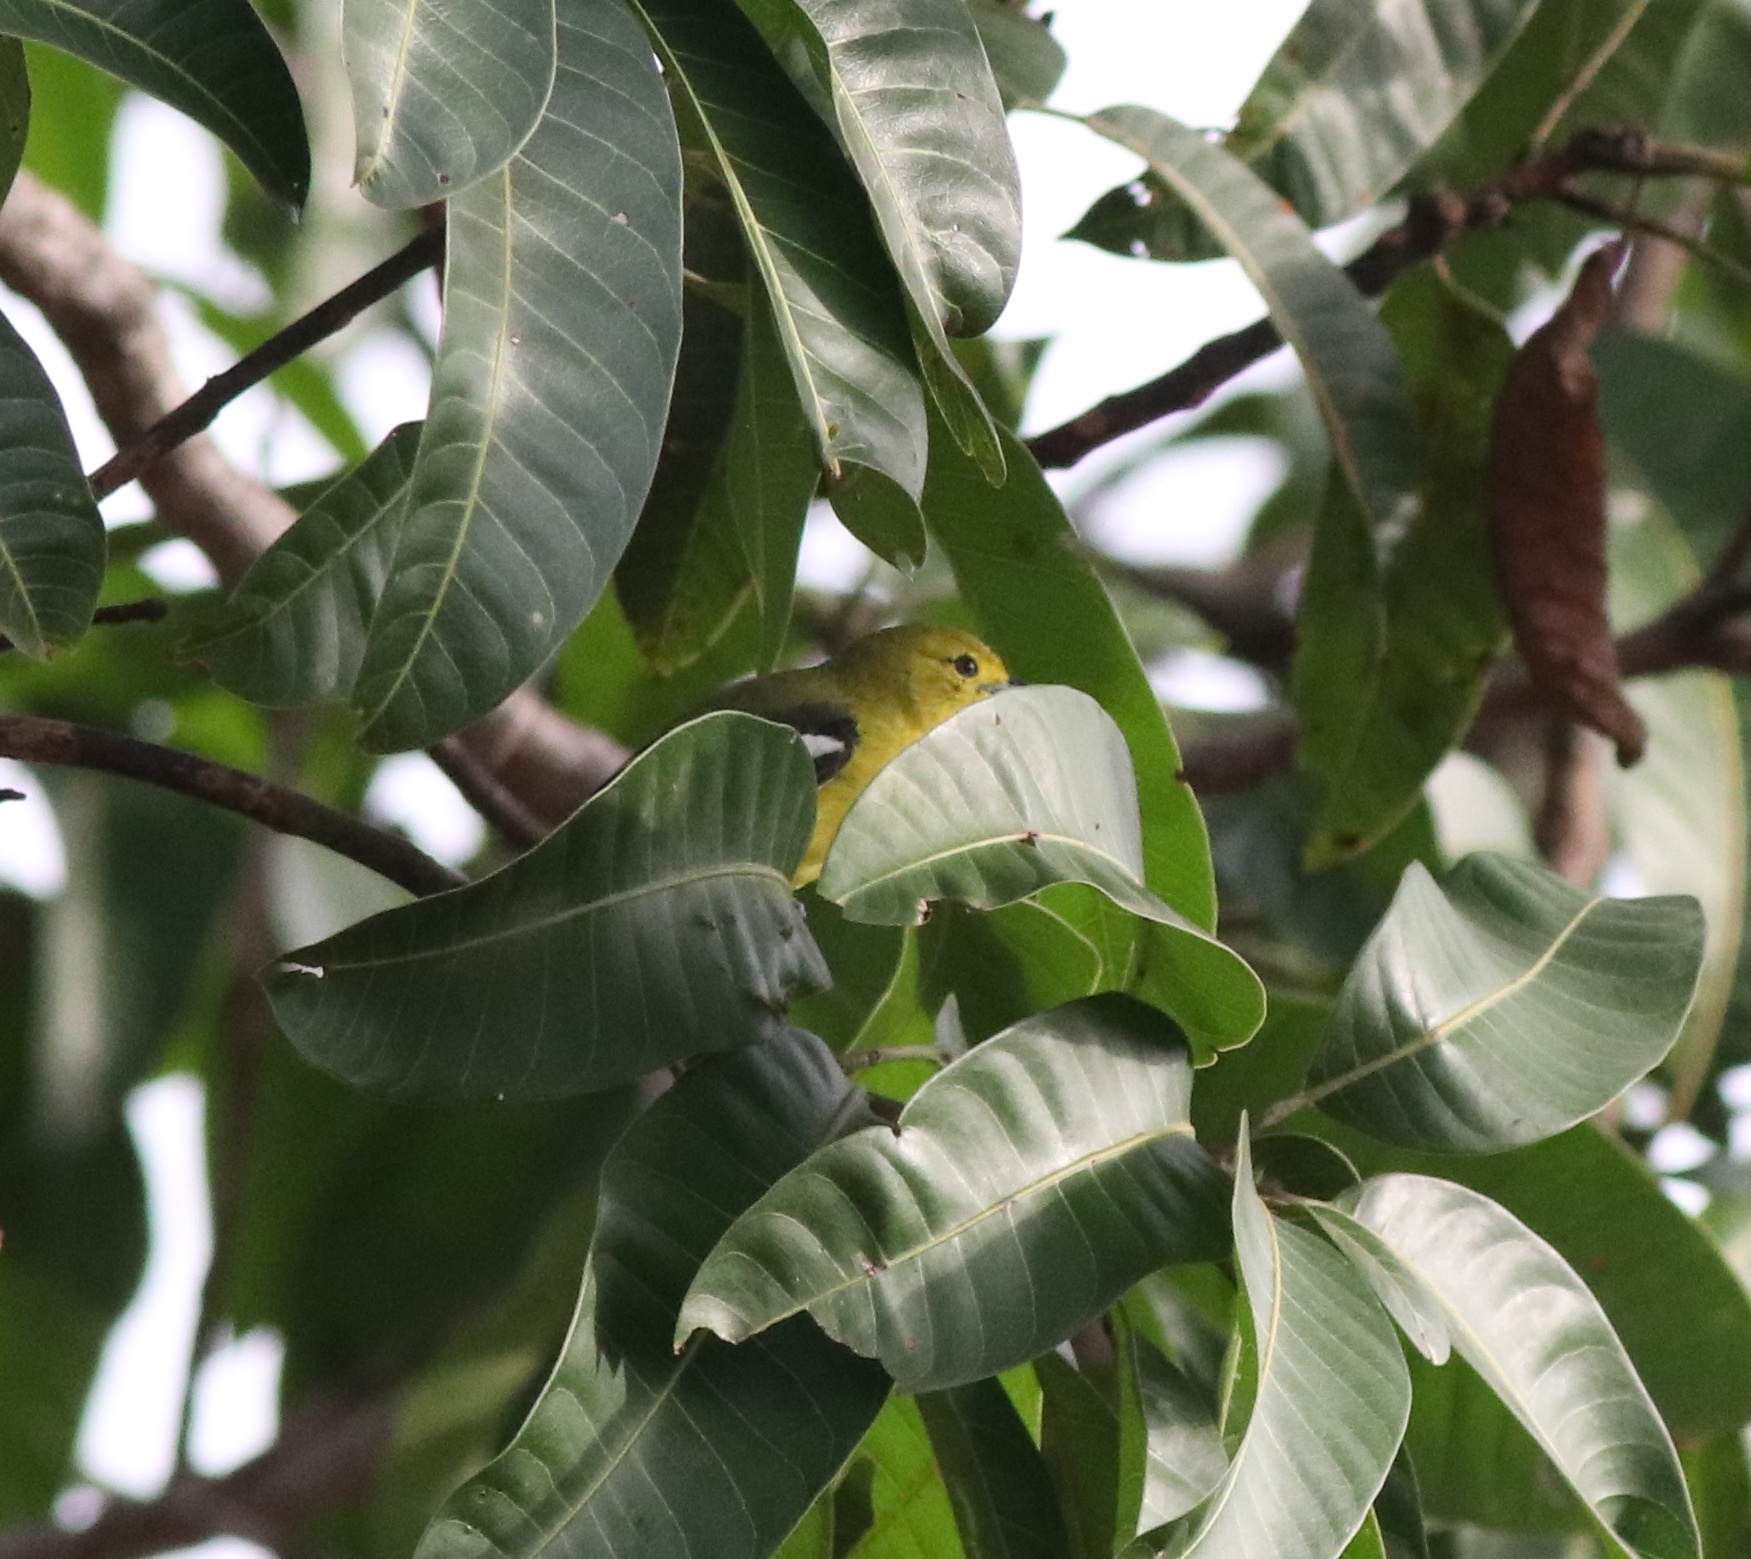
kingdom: Animalia
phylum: Chordata
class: Aves
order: Passeriformes
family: Aegithinidae
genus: Aegithina
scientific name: Aegithina tiphia
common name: Common iora
